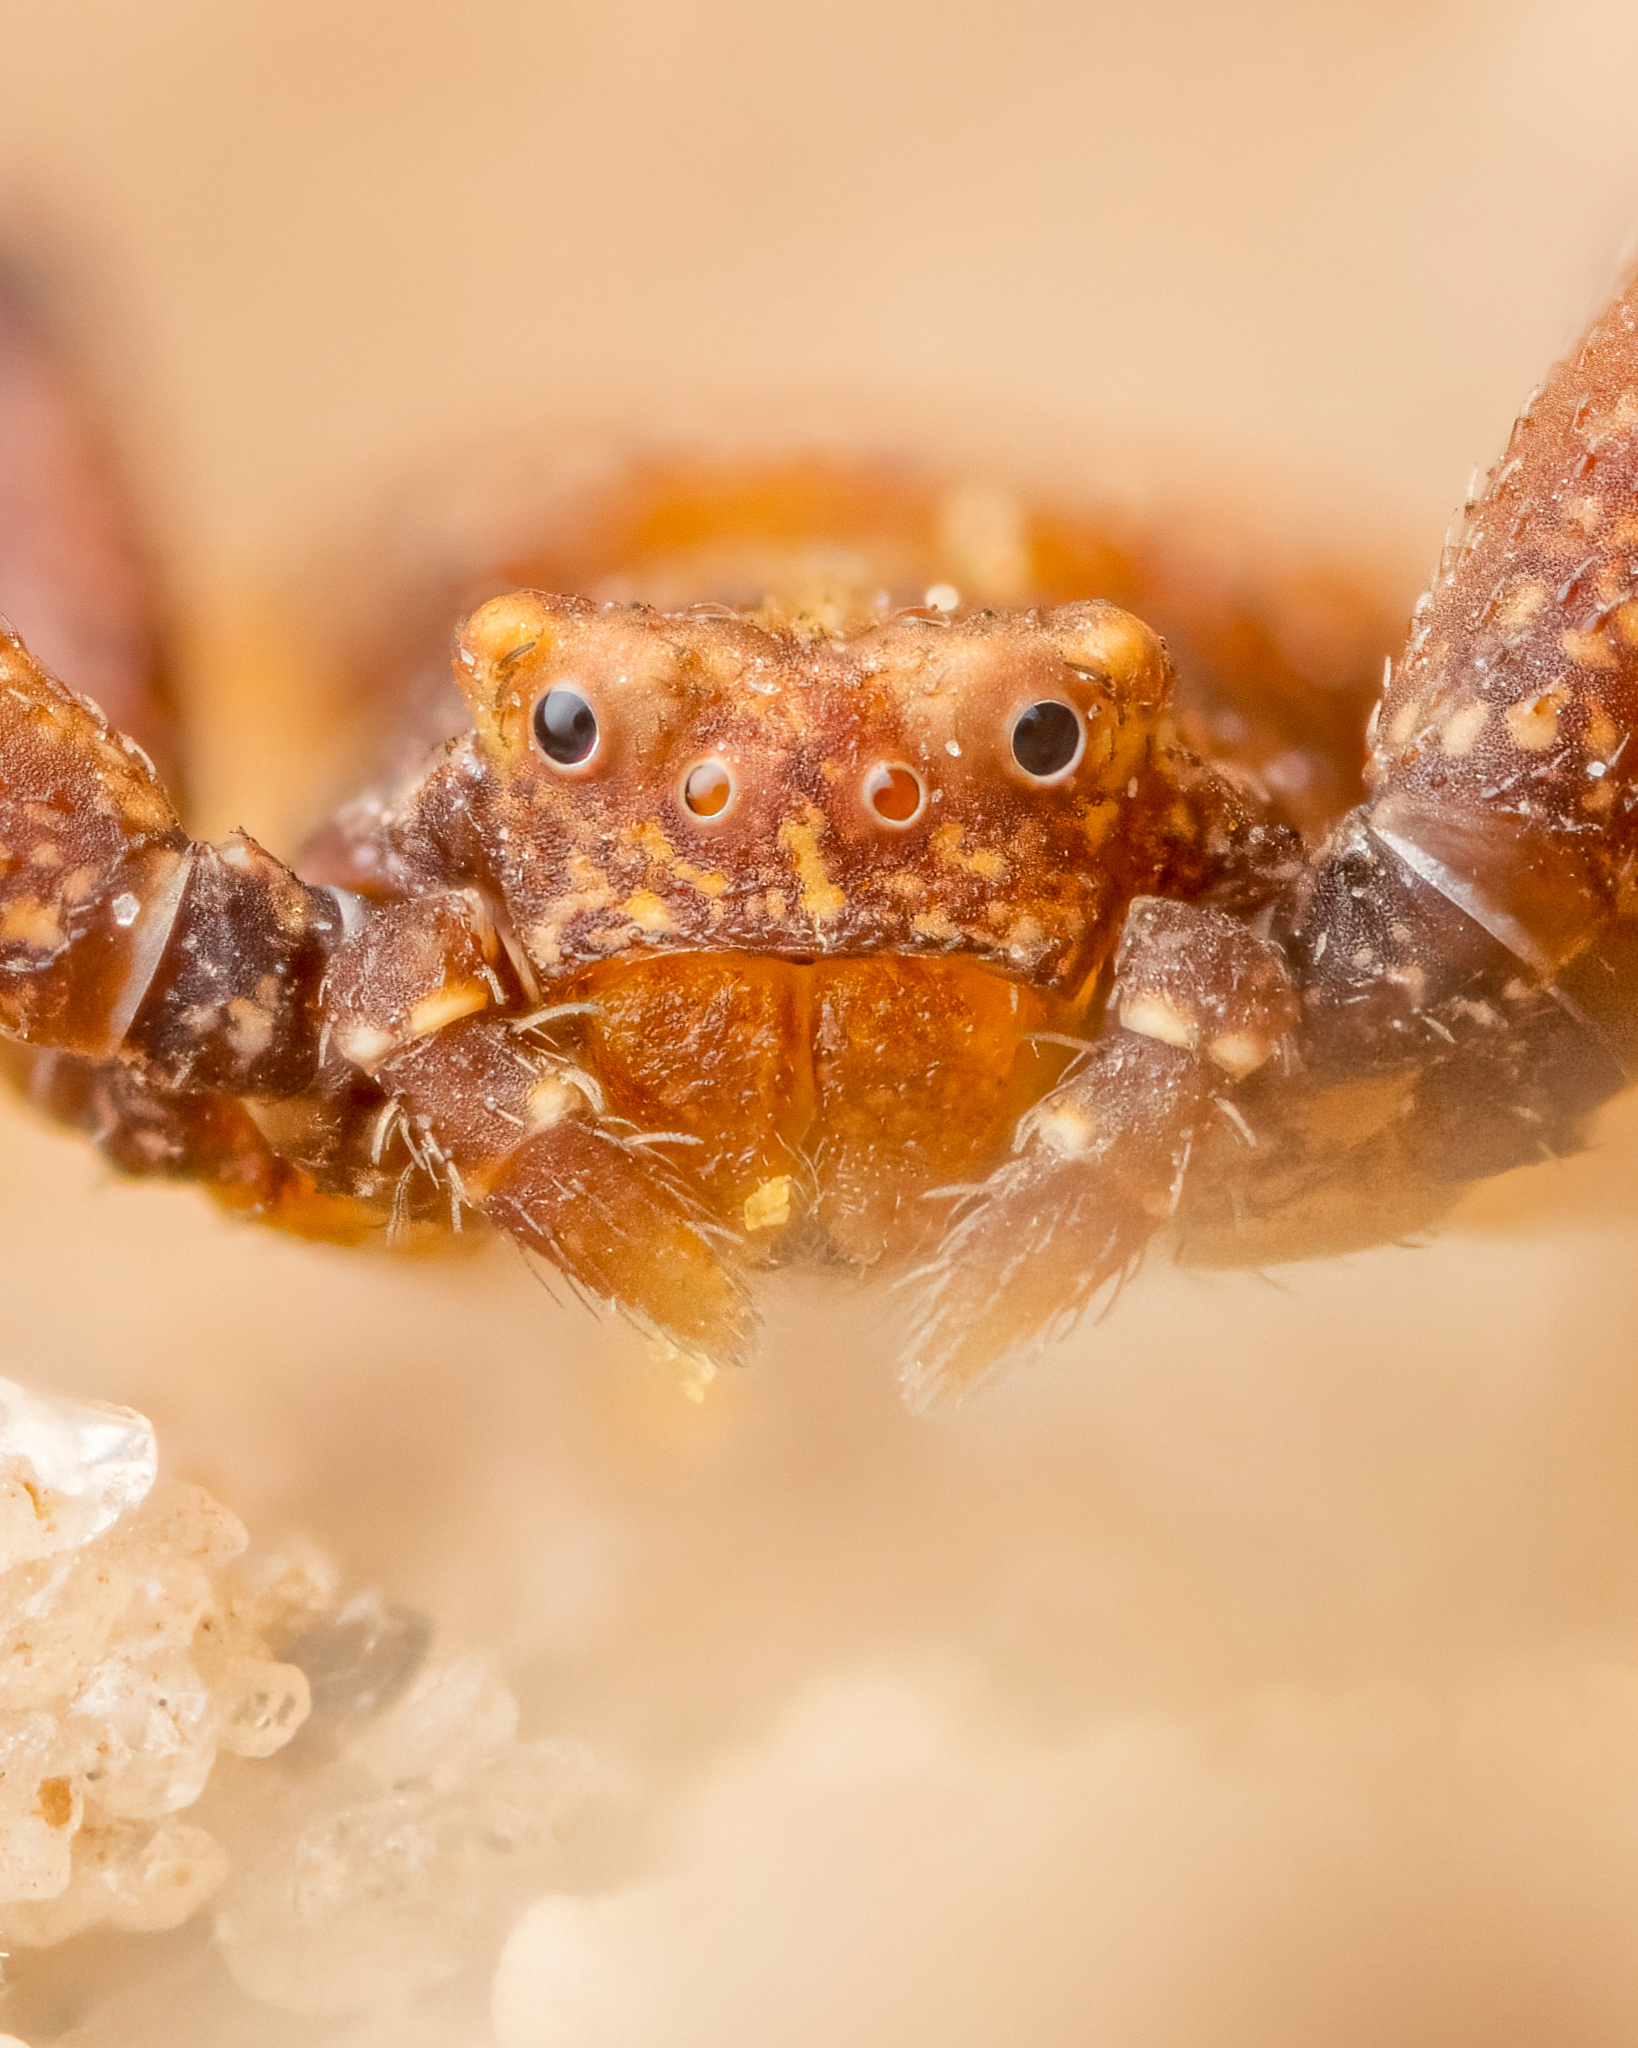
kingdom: Animalia
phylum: Arthropoda
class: Arachnida
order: Araneae
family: Thomisidae
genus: Pistius
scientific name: Pistius truncatus
